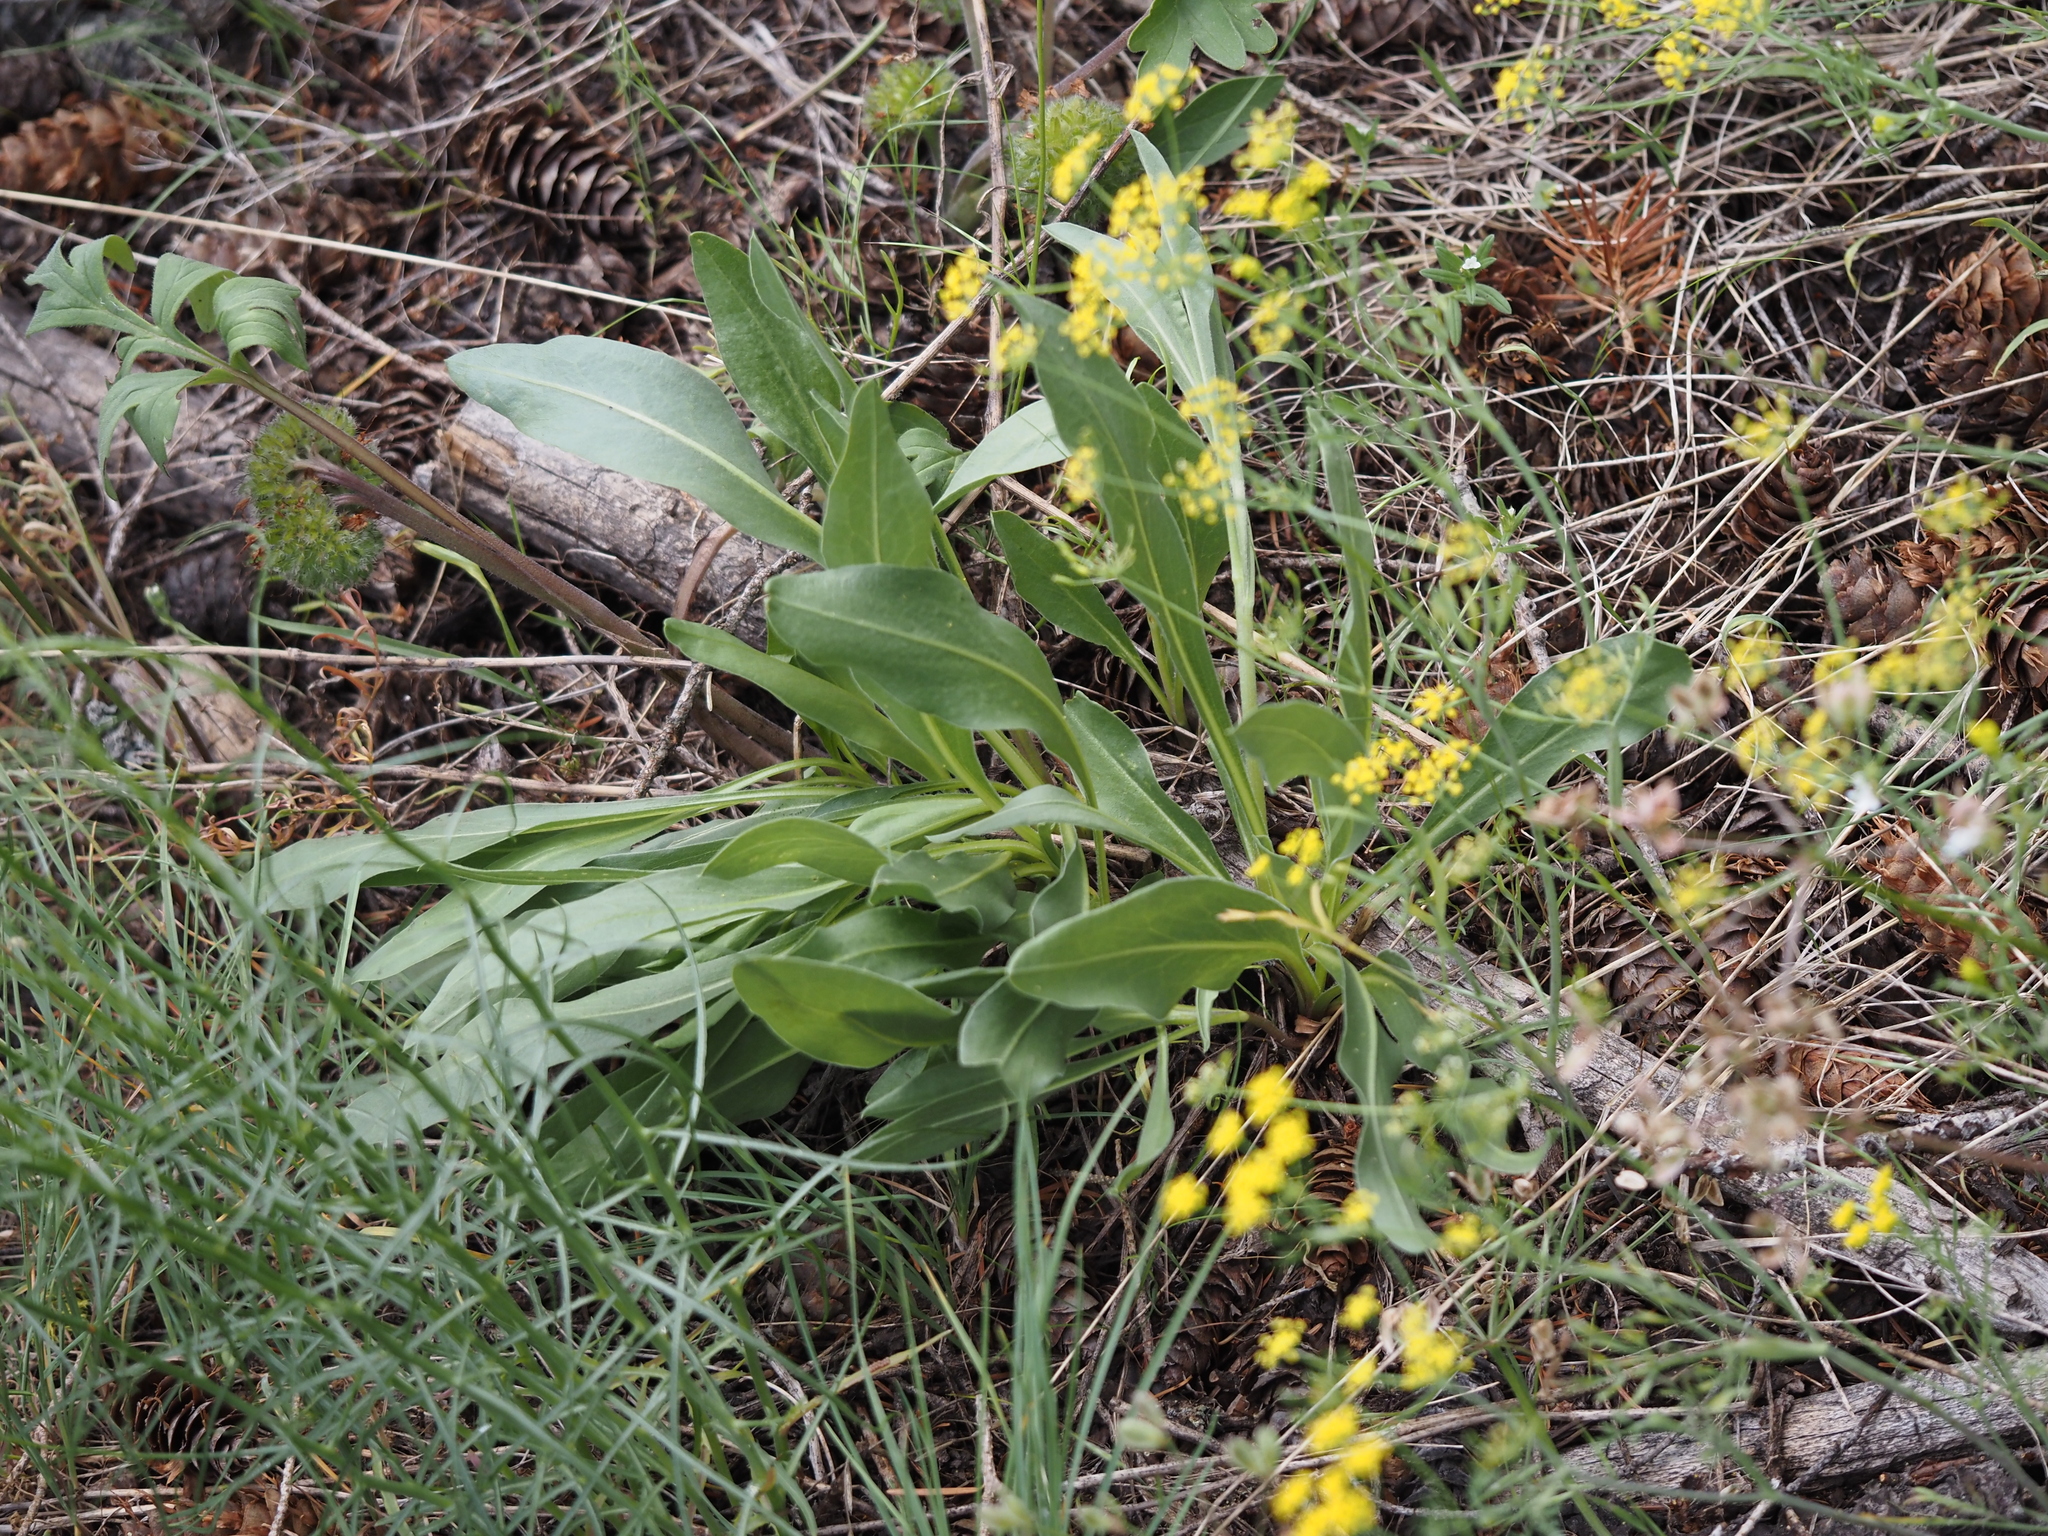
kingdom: Plantae
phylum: Tracheophyta
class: Magnoliopsida
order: Asterales
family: Asteraceae
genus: Senecio
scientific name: Senecio integerrimus
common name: Gaugeplant
